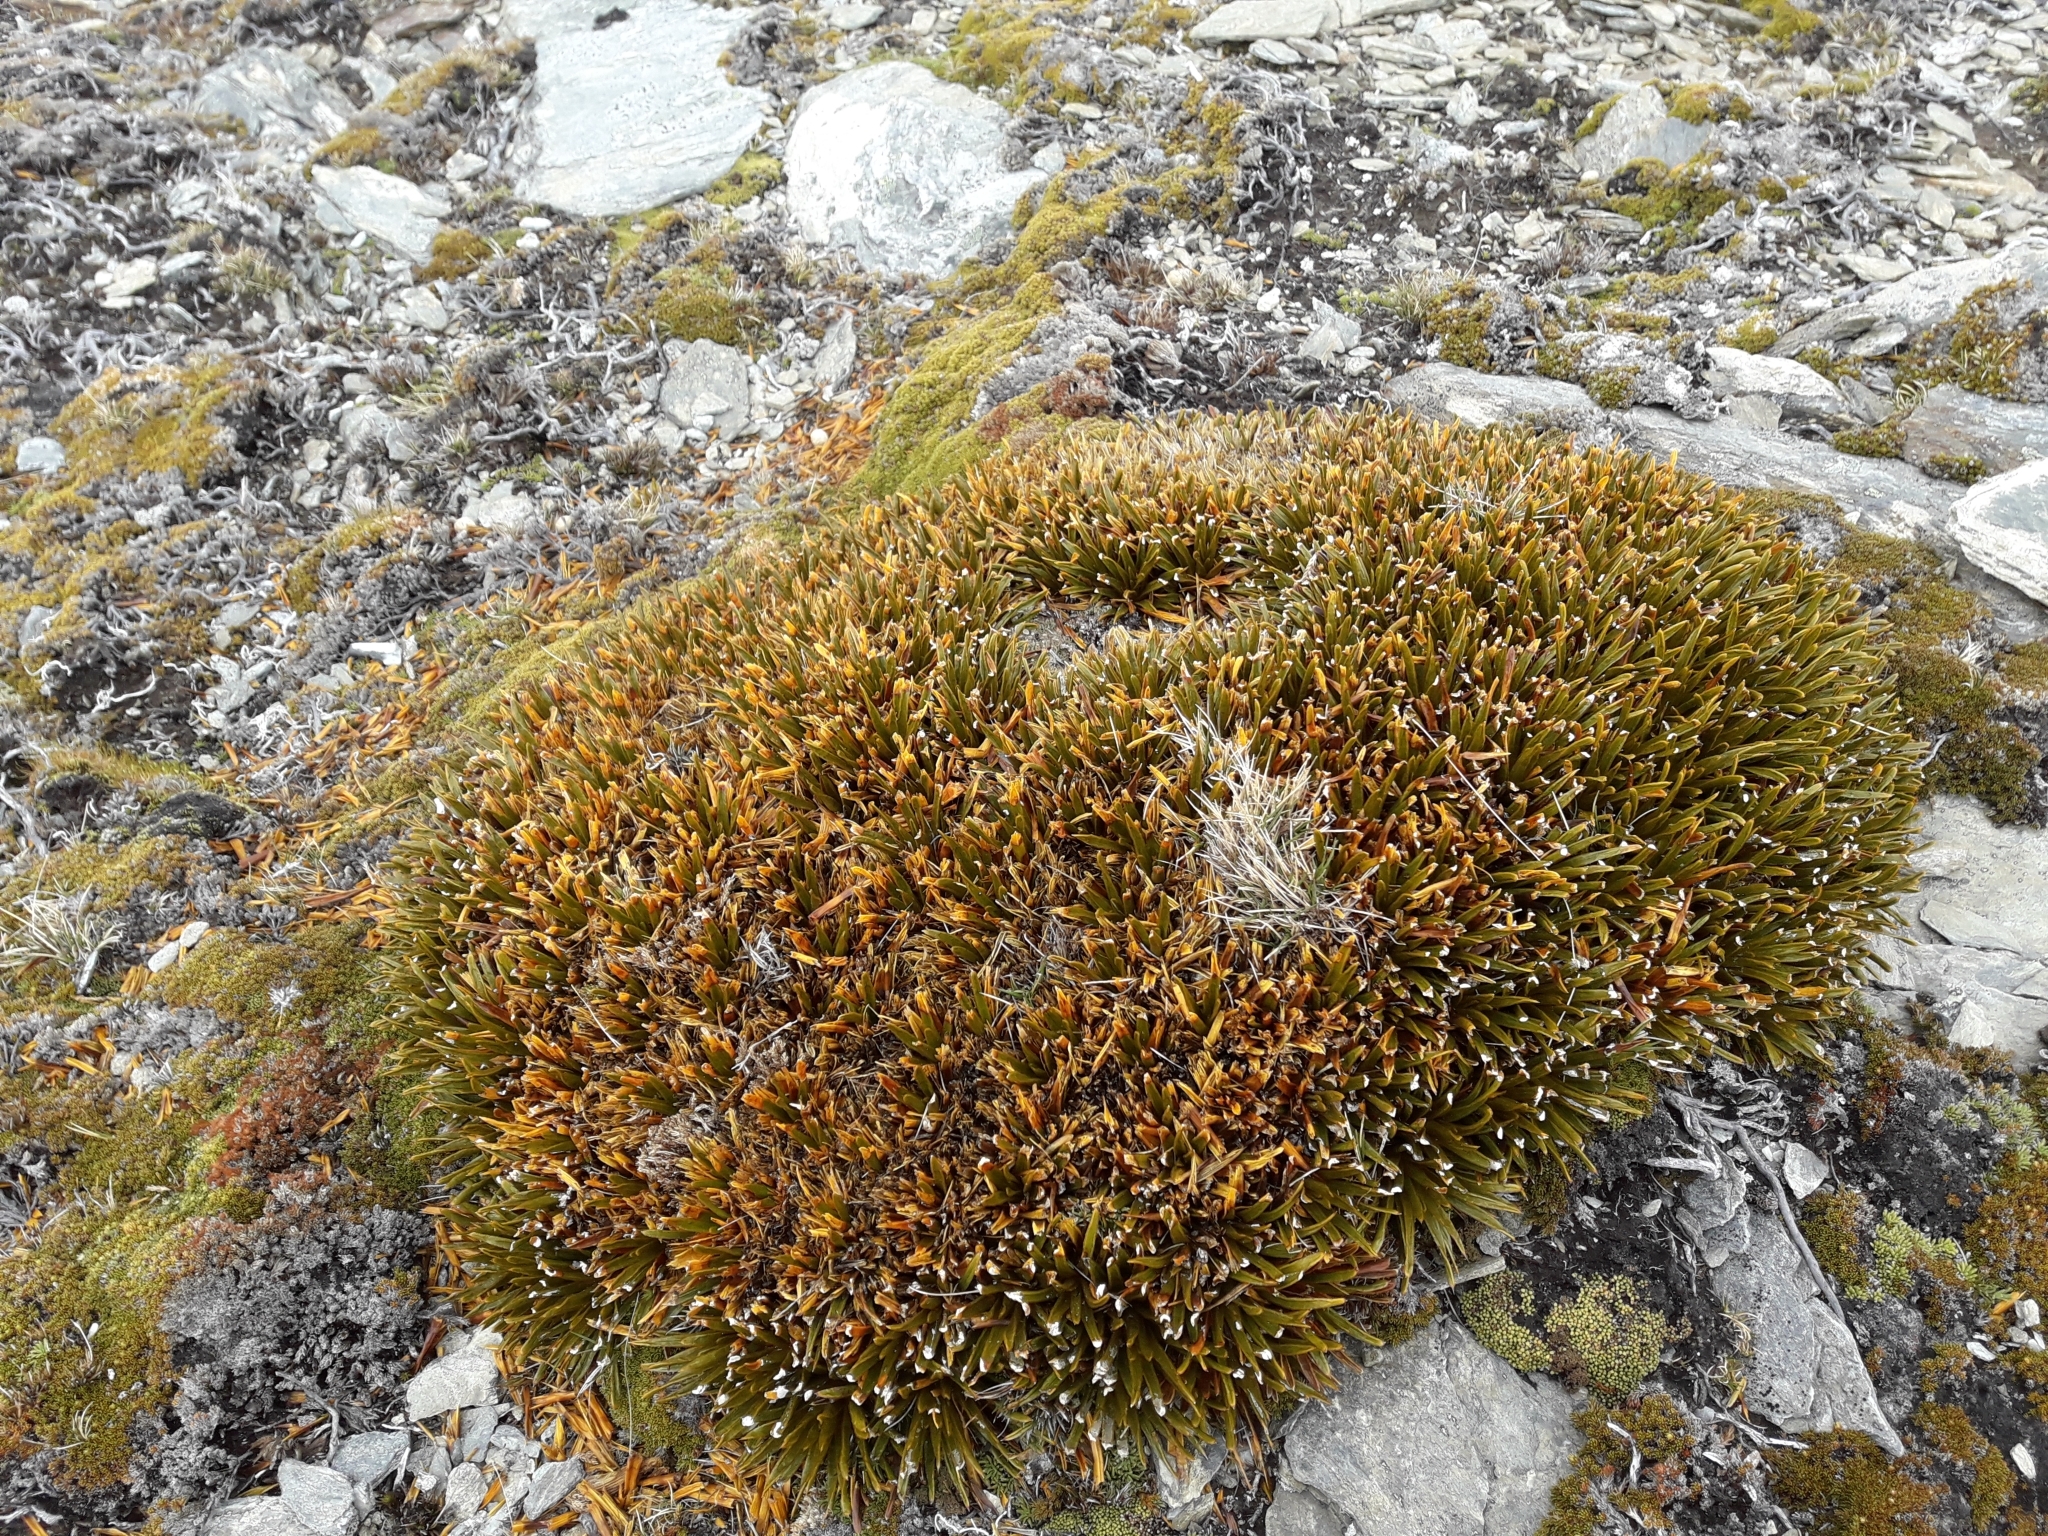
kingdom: Plantae
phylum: Tracheophyta
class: Magnoliopsida
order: Apiales
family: Apiaceae
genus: Aciphylla
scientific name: Aciphylla simplex
